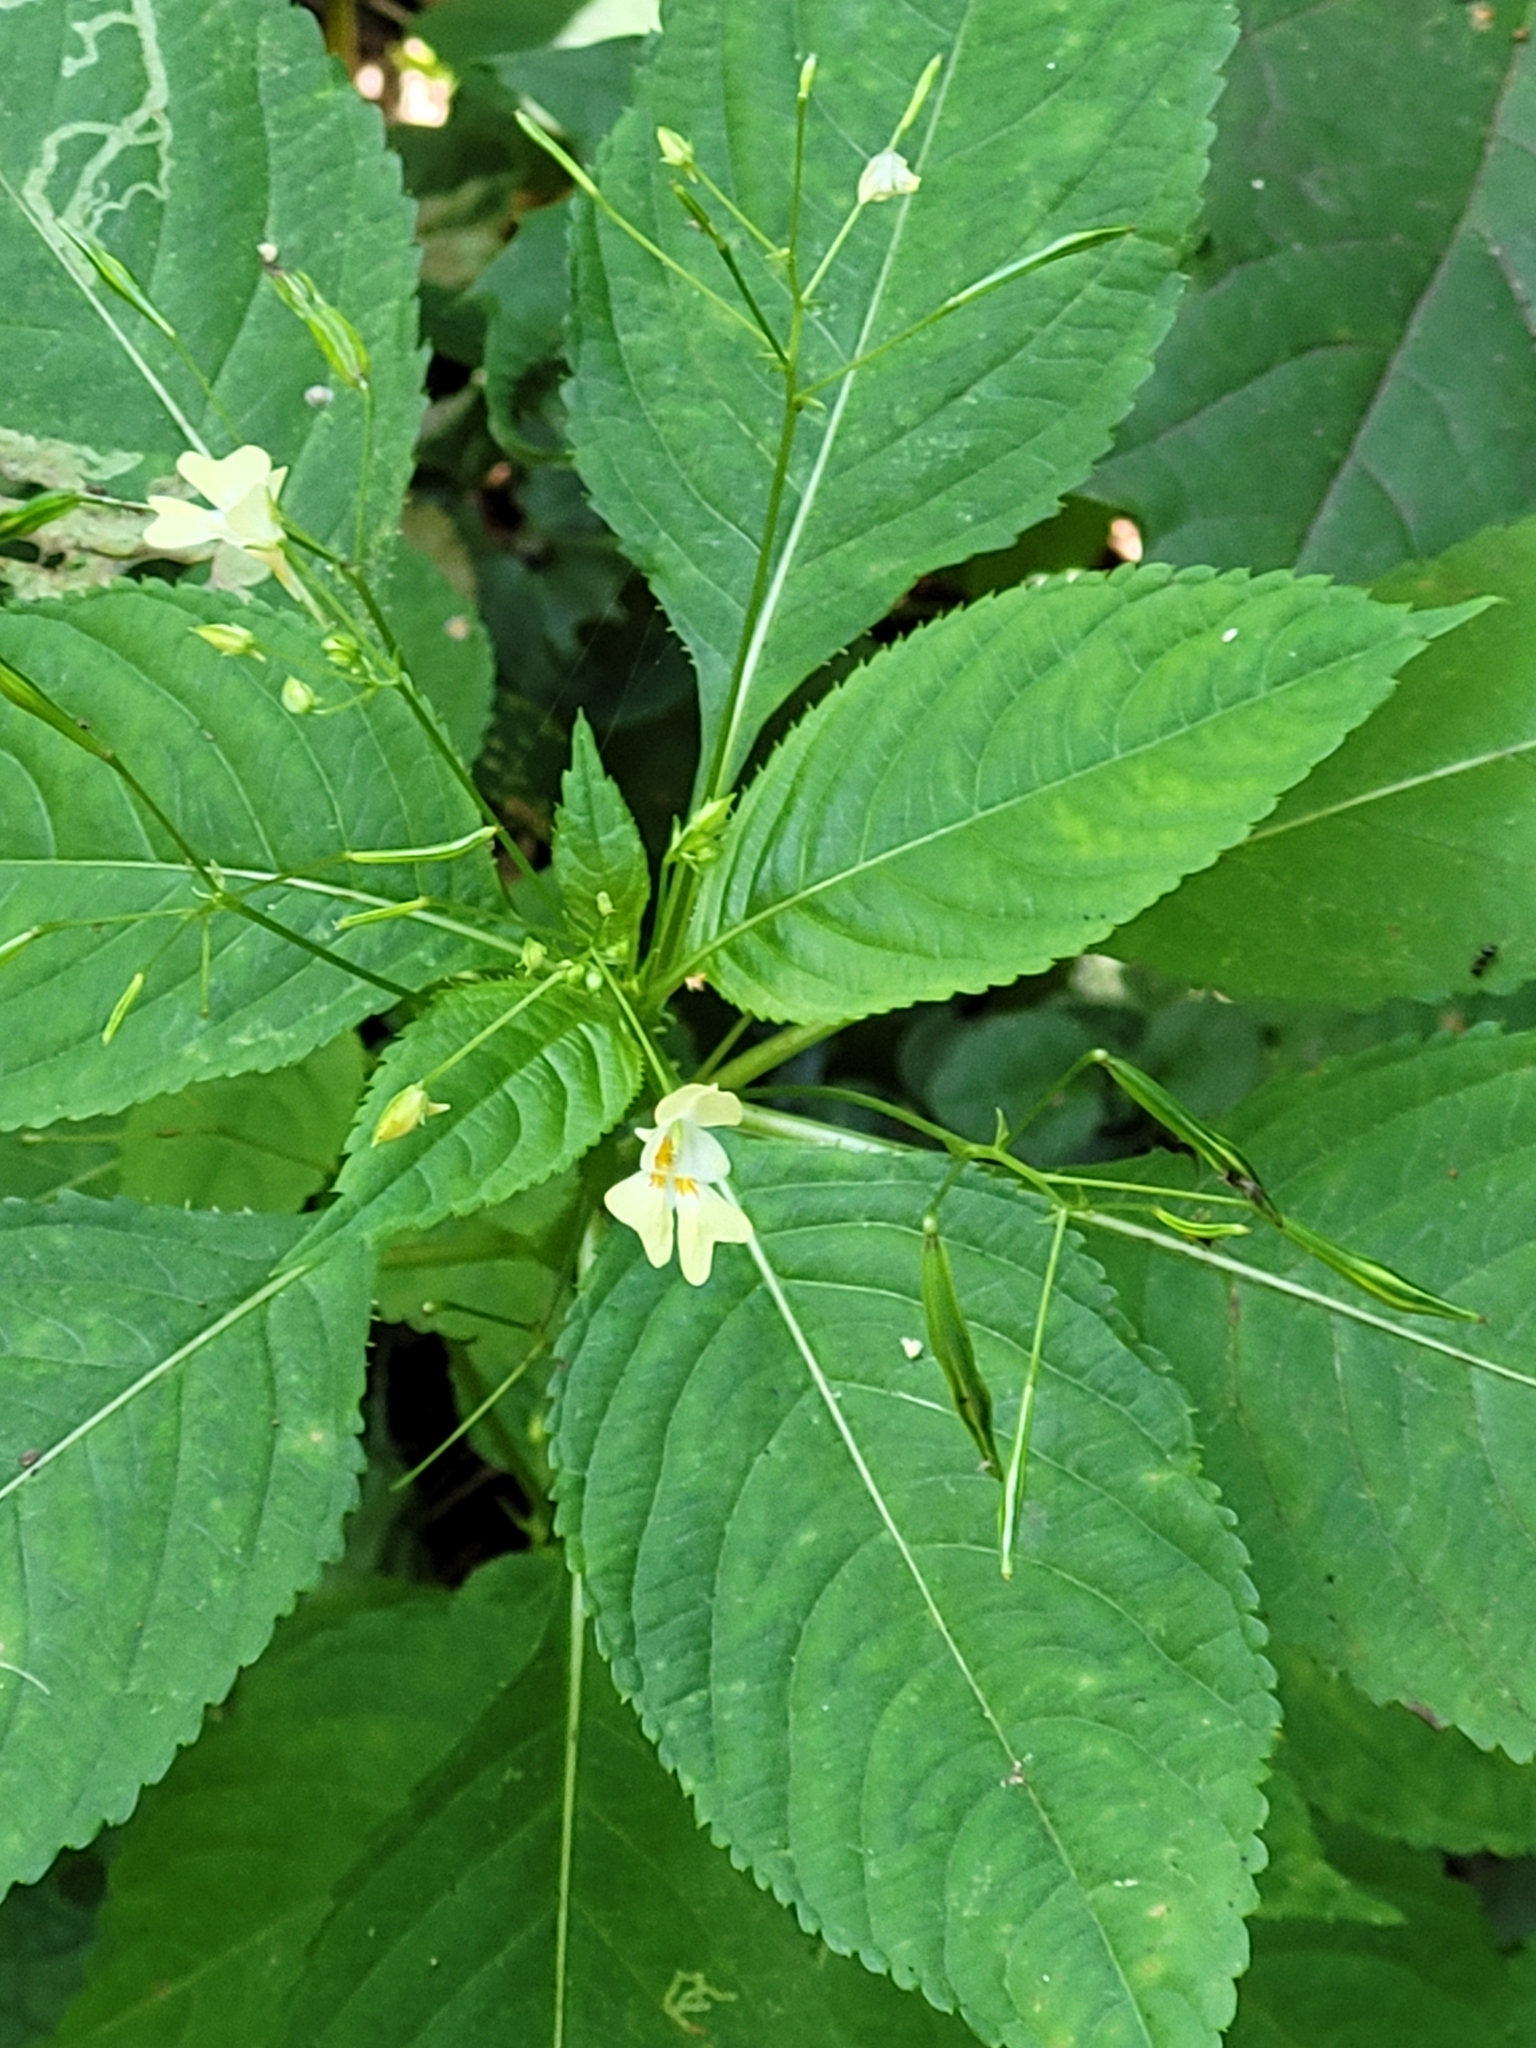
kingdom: Plantae
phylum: Tracheophyta
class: Magnoliopsida
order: Ericales
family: Balsaminaceae
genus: Impatiens
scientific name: Impatiens parviflora
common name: Small balsam
